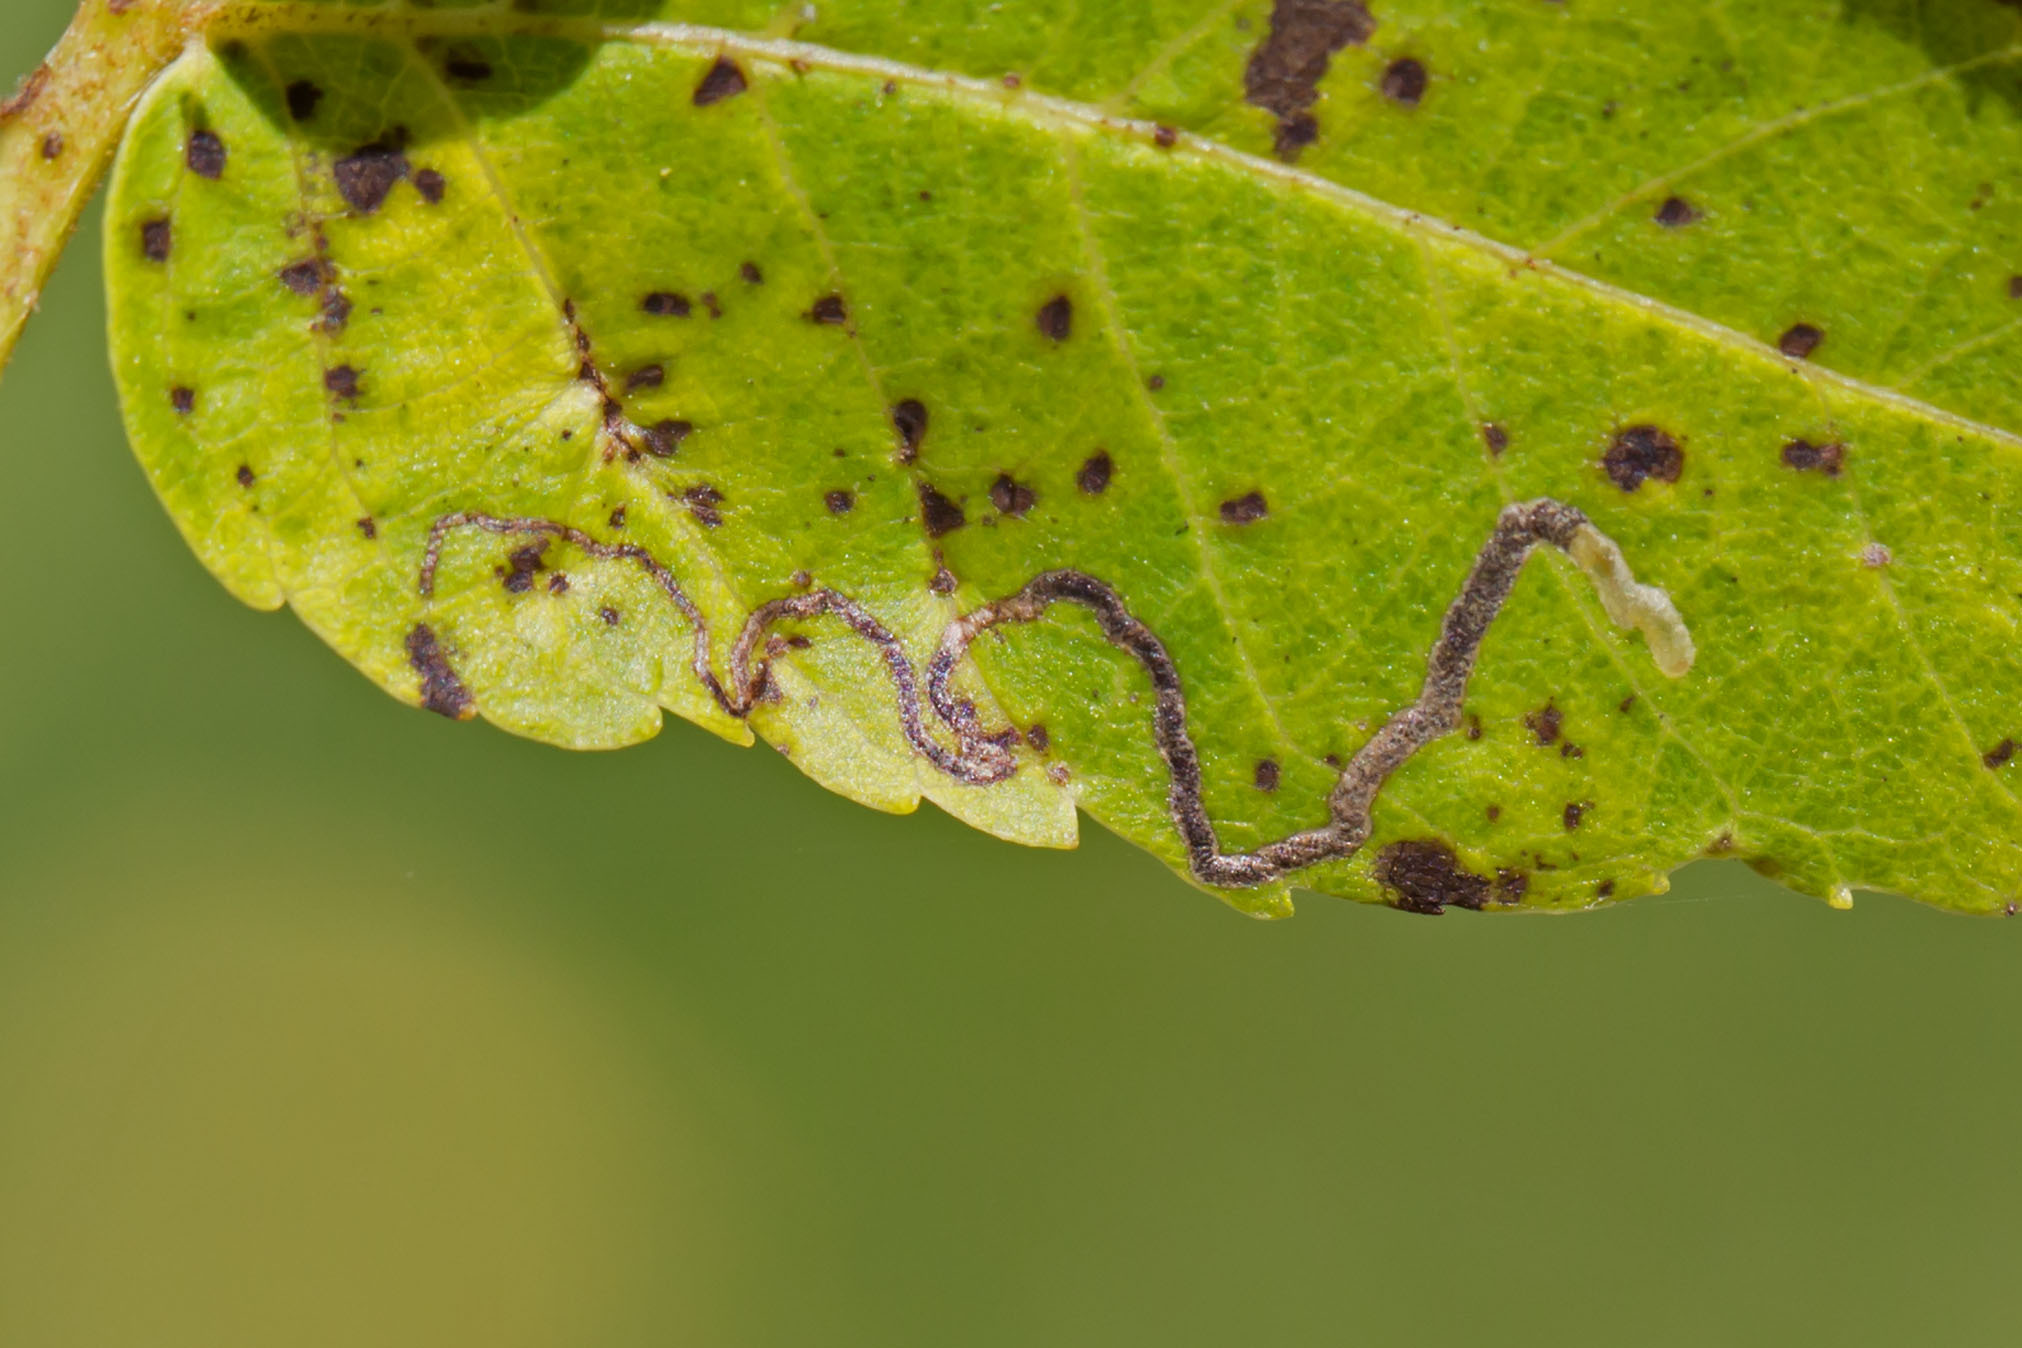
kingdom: Animalia
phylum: Arthropoda
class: Insecta
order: Lepidoptera
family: Nepticulidae
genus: Stigmella
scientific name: Stigmella juglandifoliella
